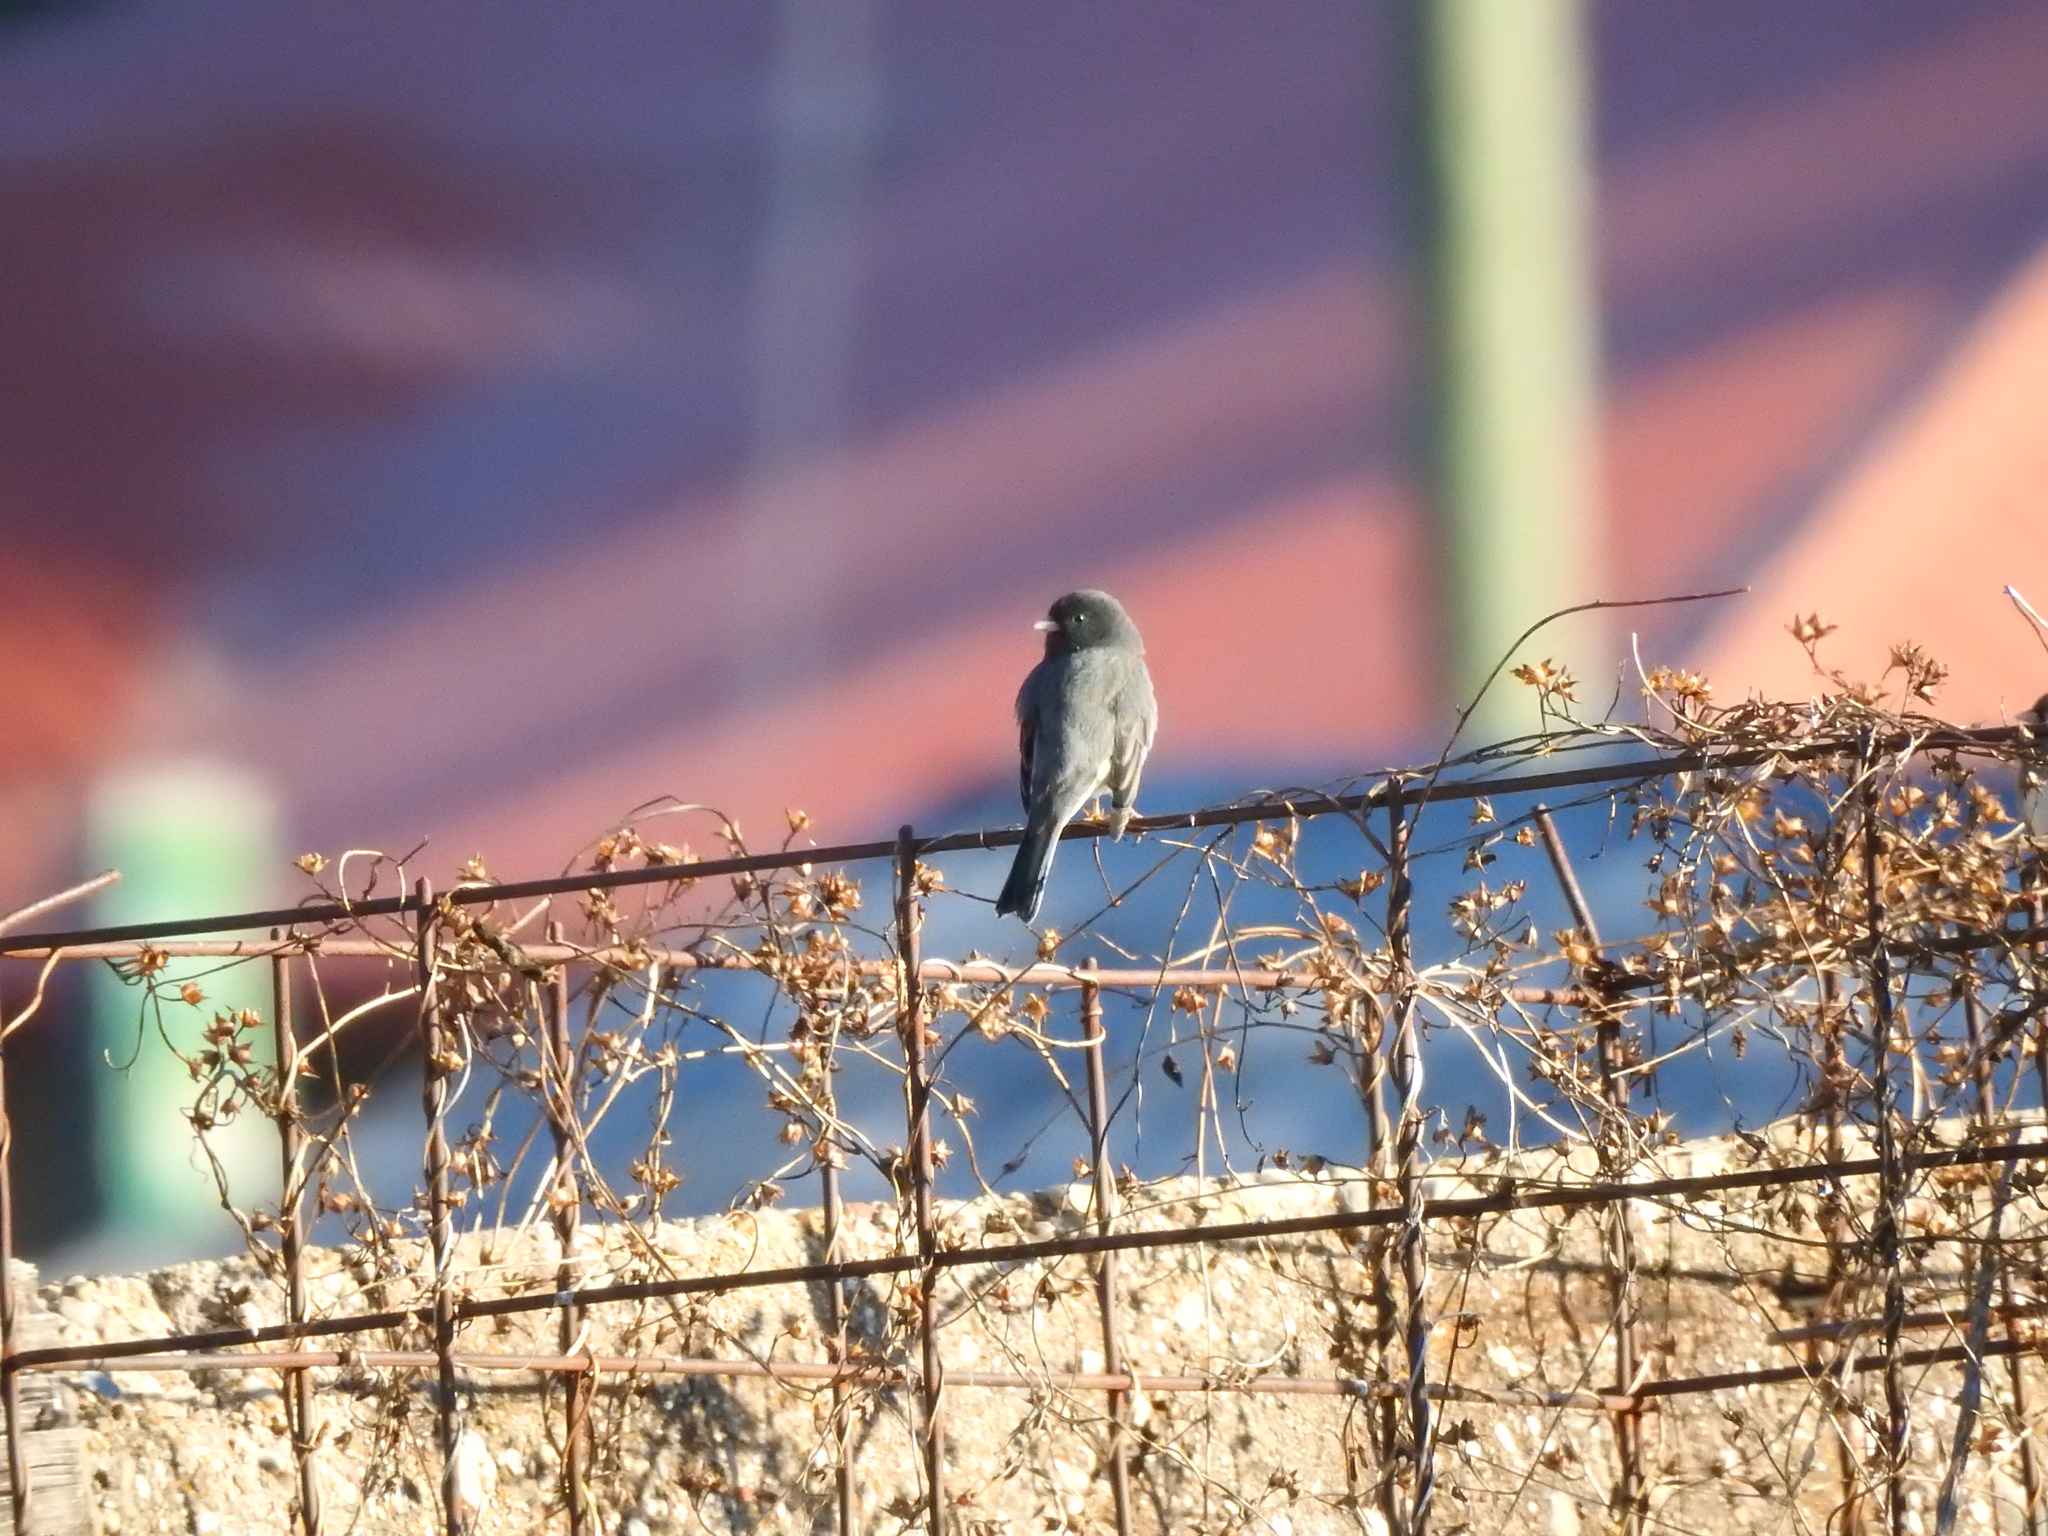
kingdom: Animalia
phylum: Chordata
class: Aves
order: Passeriformes
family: Passerellidae
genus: Junco
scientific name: Junco hyemalis
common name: Dark-eyed junco
